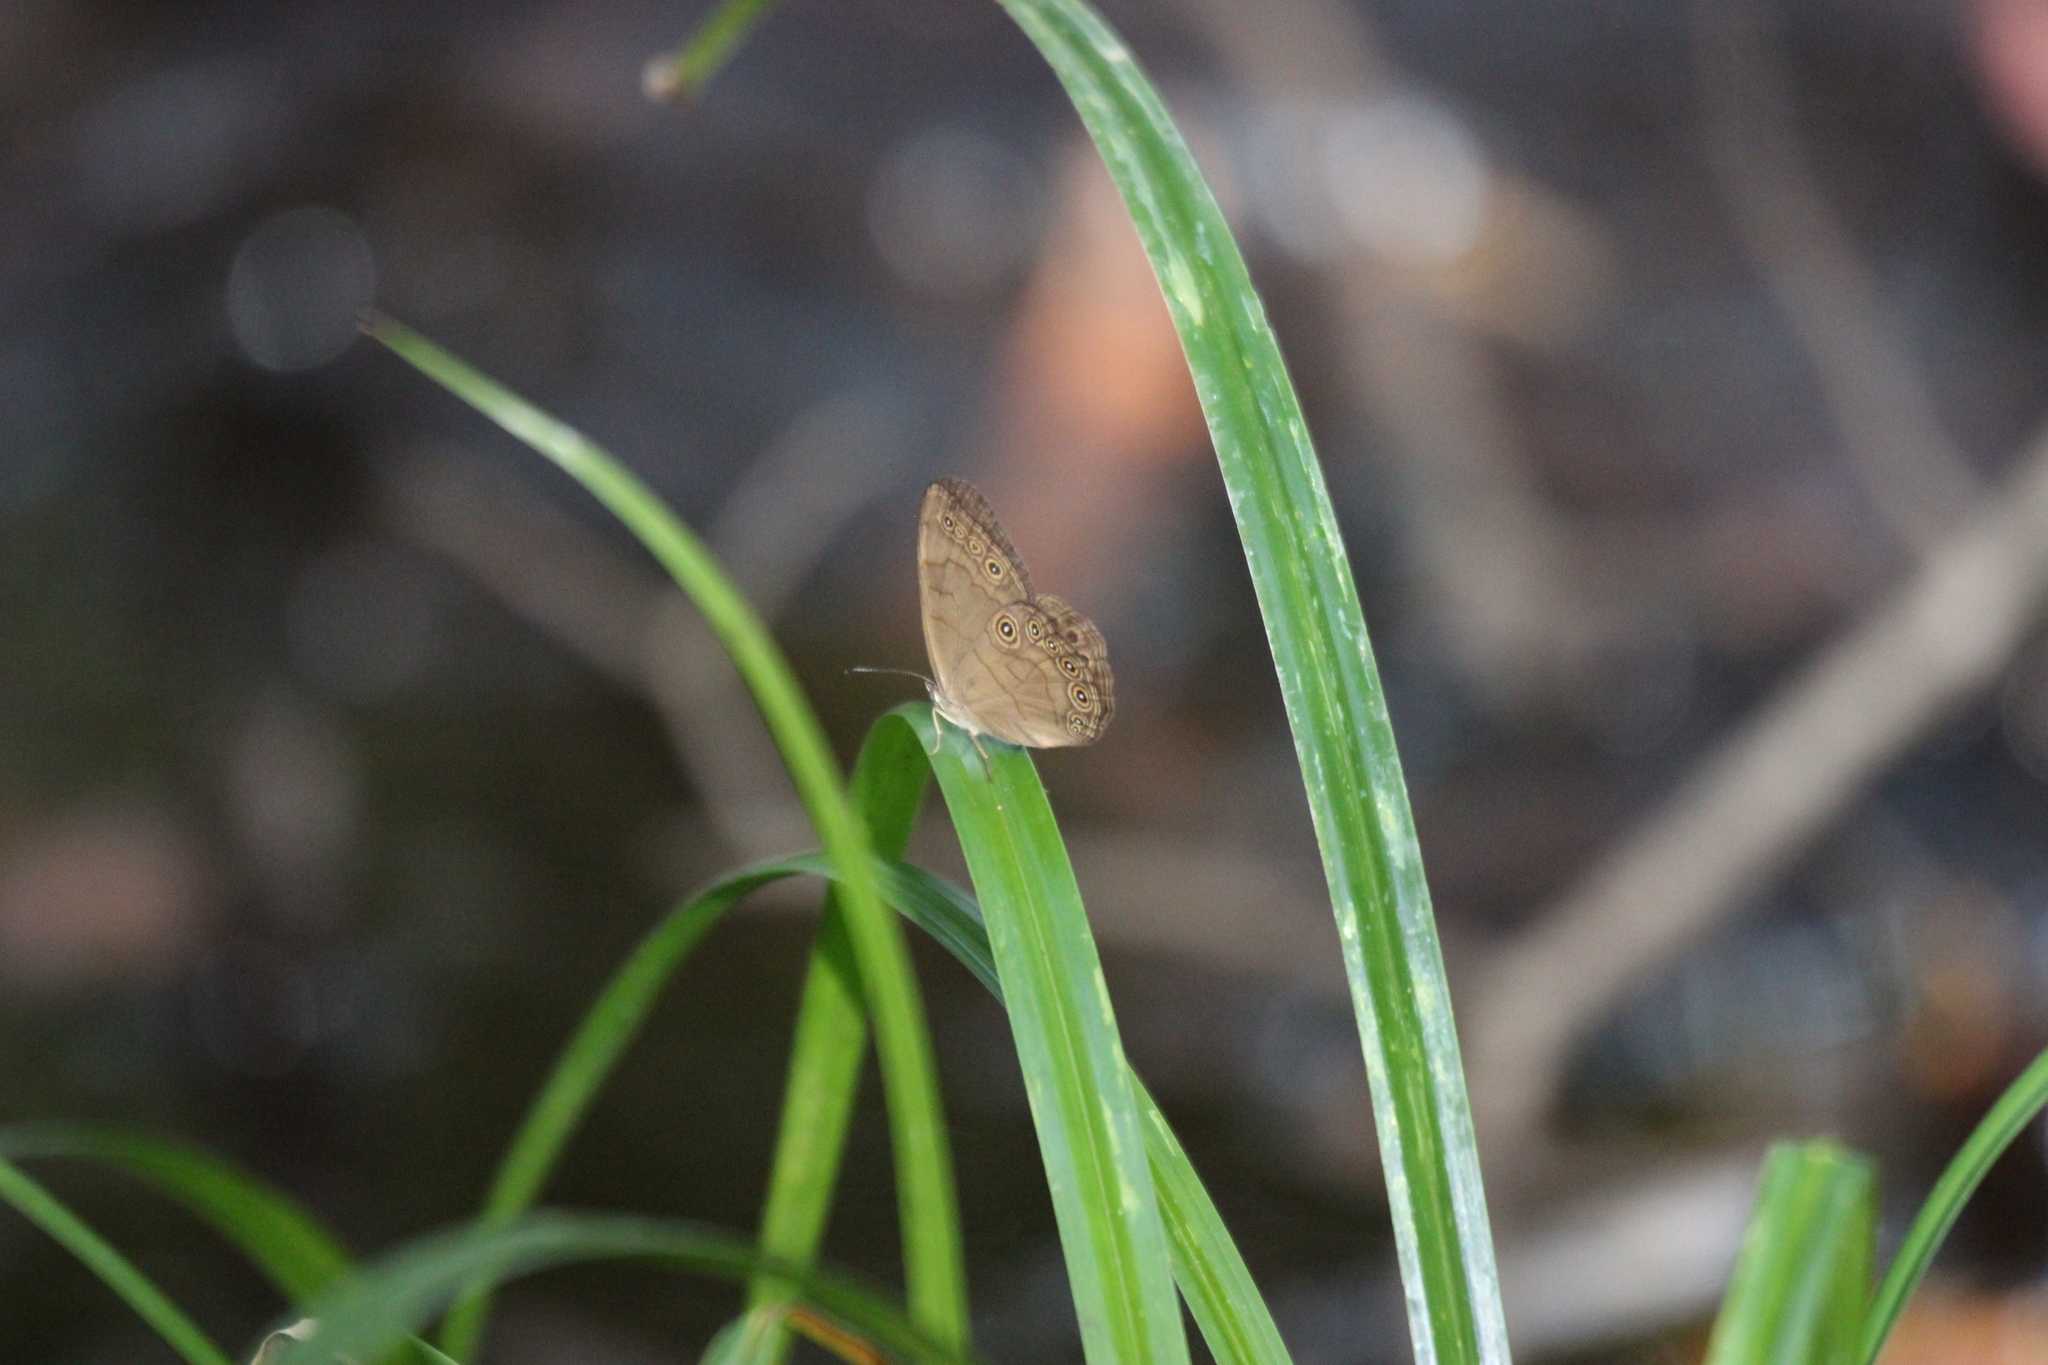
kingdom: Animalia
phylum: Arthropoda
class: Insecta
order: Lepidoptera
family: Nymphalidae
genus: Lethe
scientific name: Lethe eurydice
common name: Eyed brown
